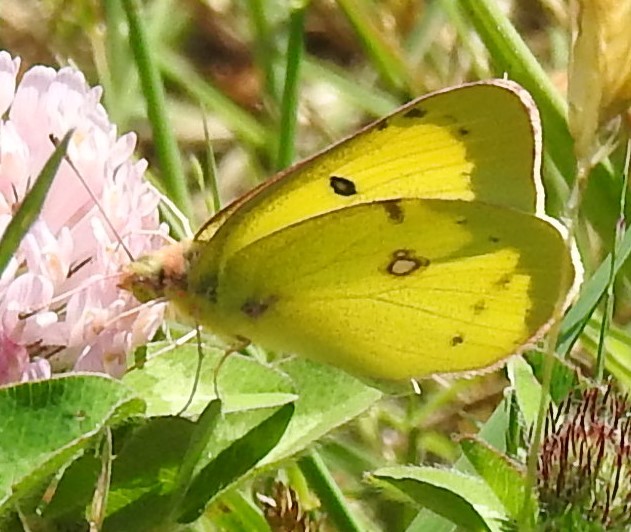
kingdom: Animalia
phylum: Arthropoda
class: Insecta
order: Lepidoptera
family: Pieridae
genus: Colias
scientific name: Colias philodice
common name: Clouded sulphur
